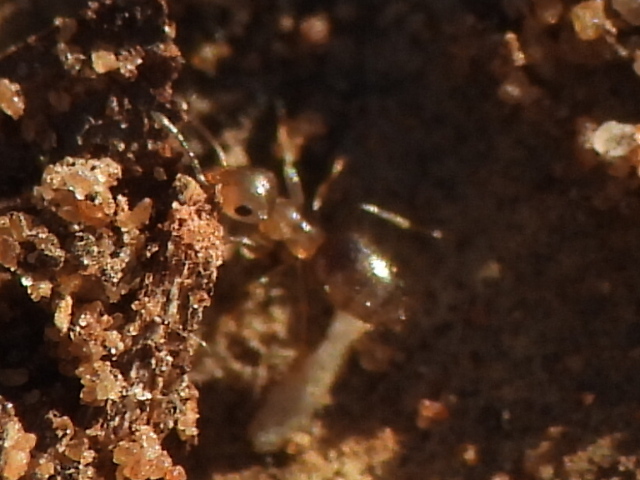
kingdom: Animalia
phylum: Arthropoda
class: Insecta
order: Hymenoptera
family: Formicidae
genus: Brachymyrmex
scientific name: Brachymyrmex patagonicus
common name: Dark rover ant
